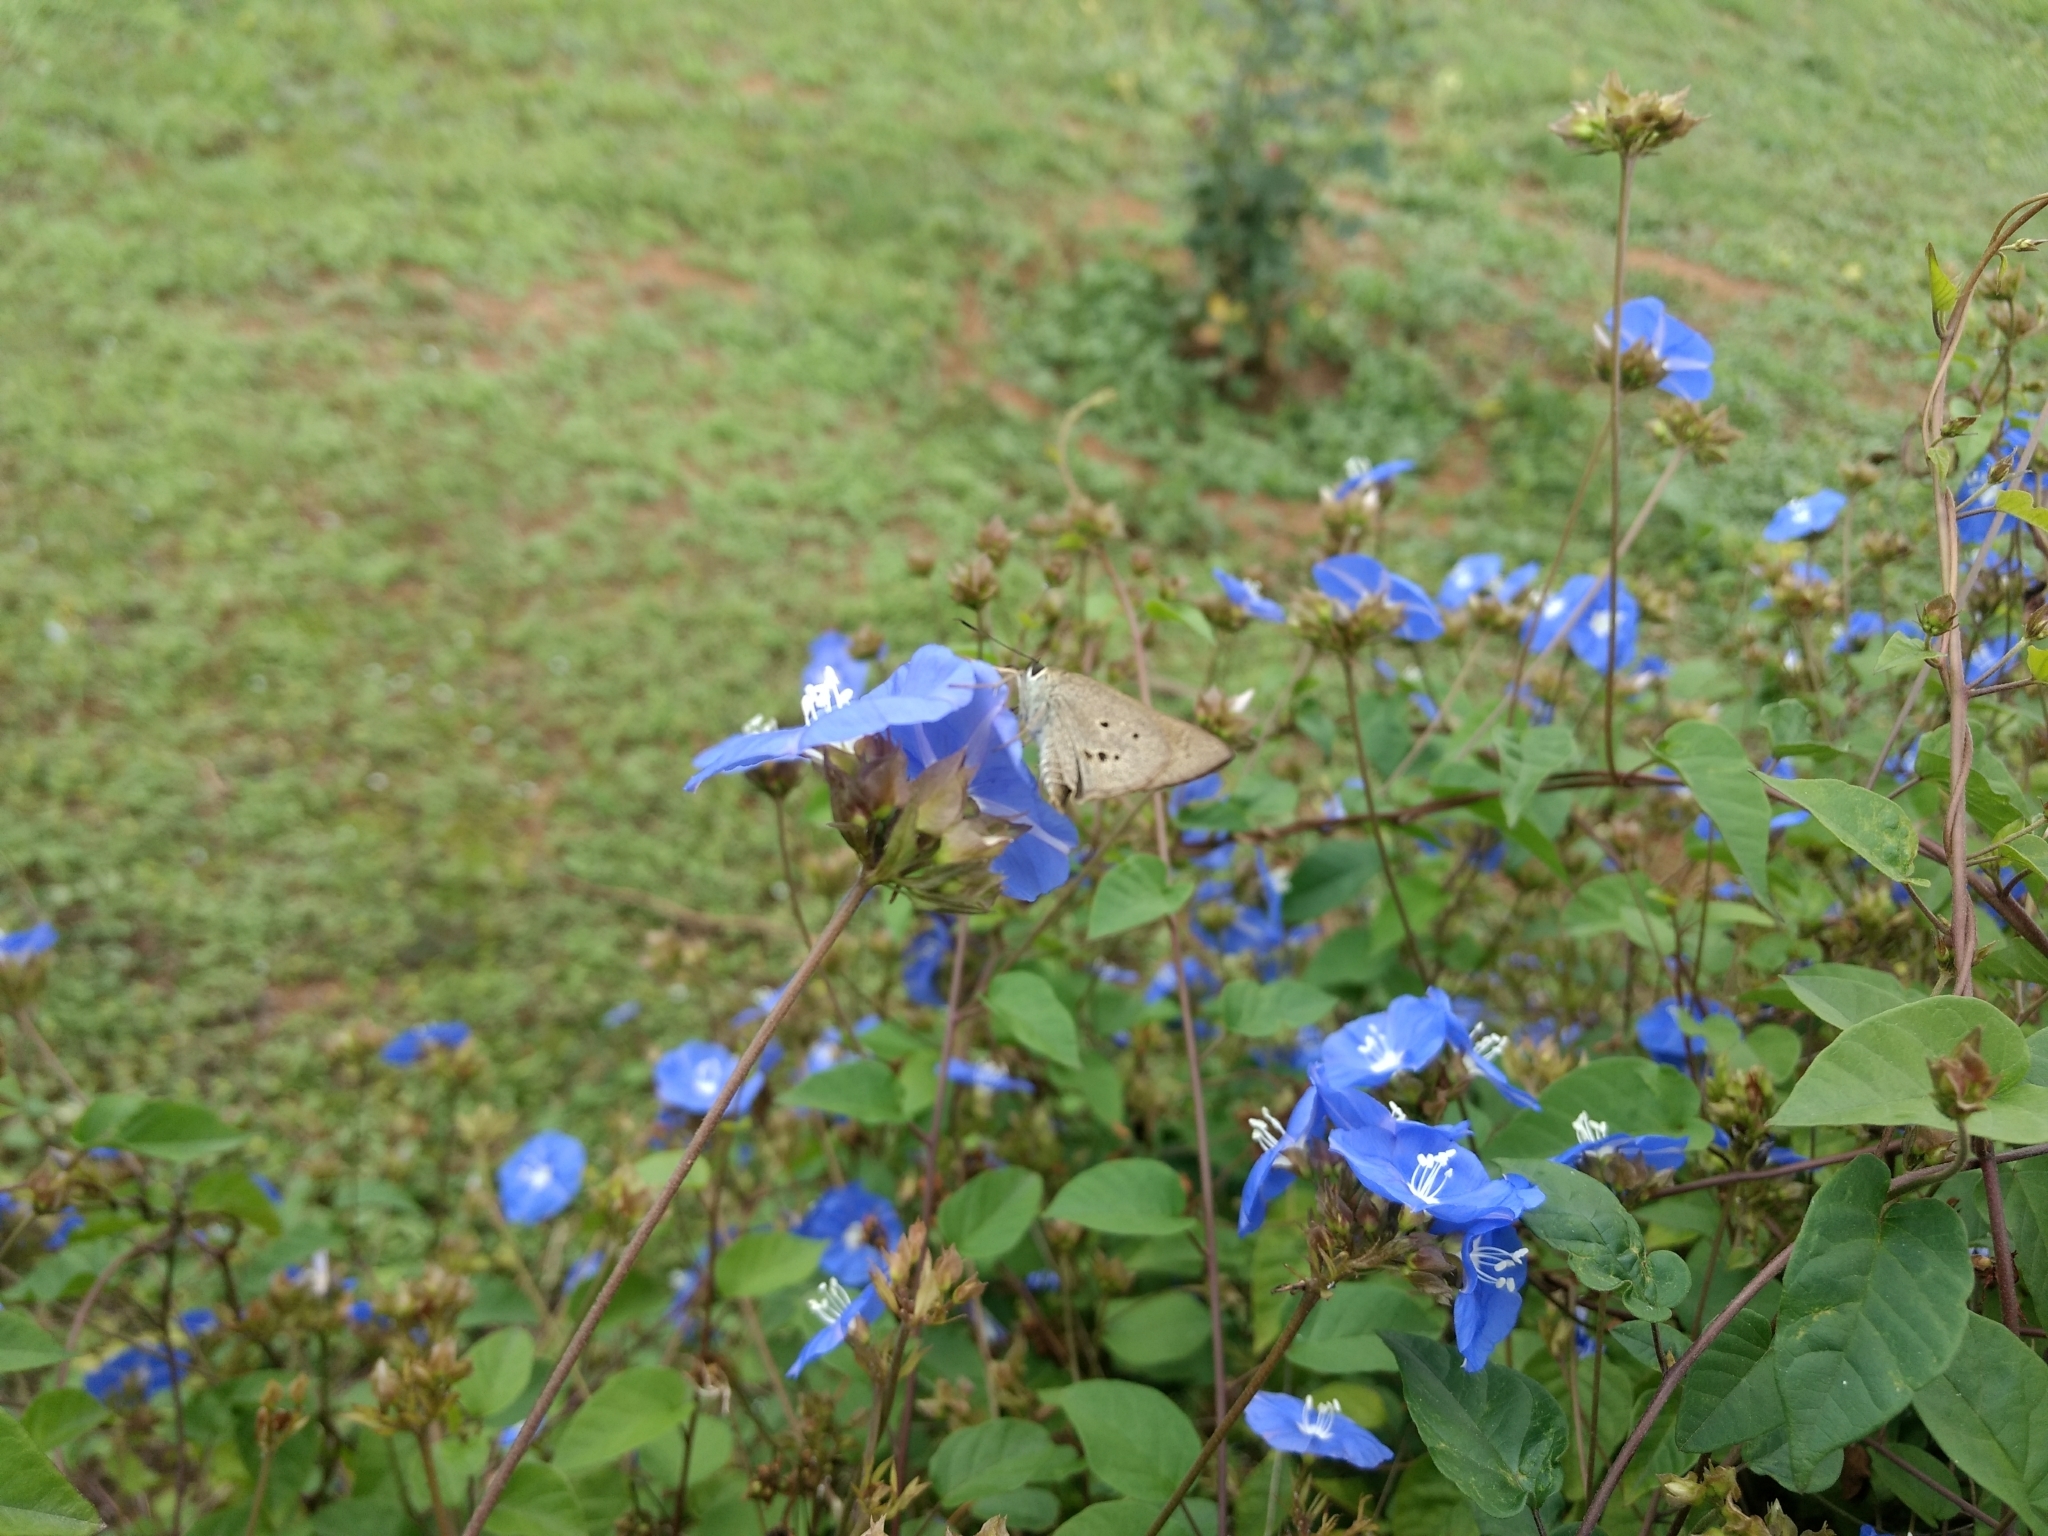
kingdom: Animalia
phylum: Arthropoda
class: Insecta
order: Lepidoptera
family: Hesperiidae
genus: Suastus
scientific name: Suastus gremius
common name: Indian palm bob
